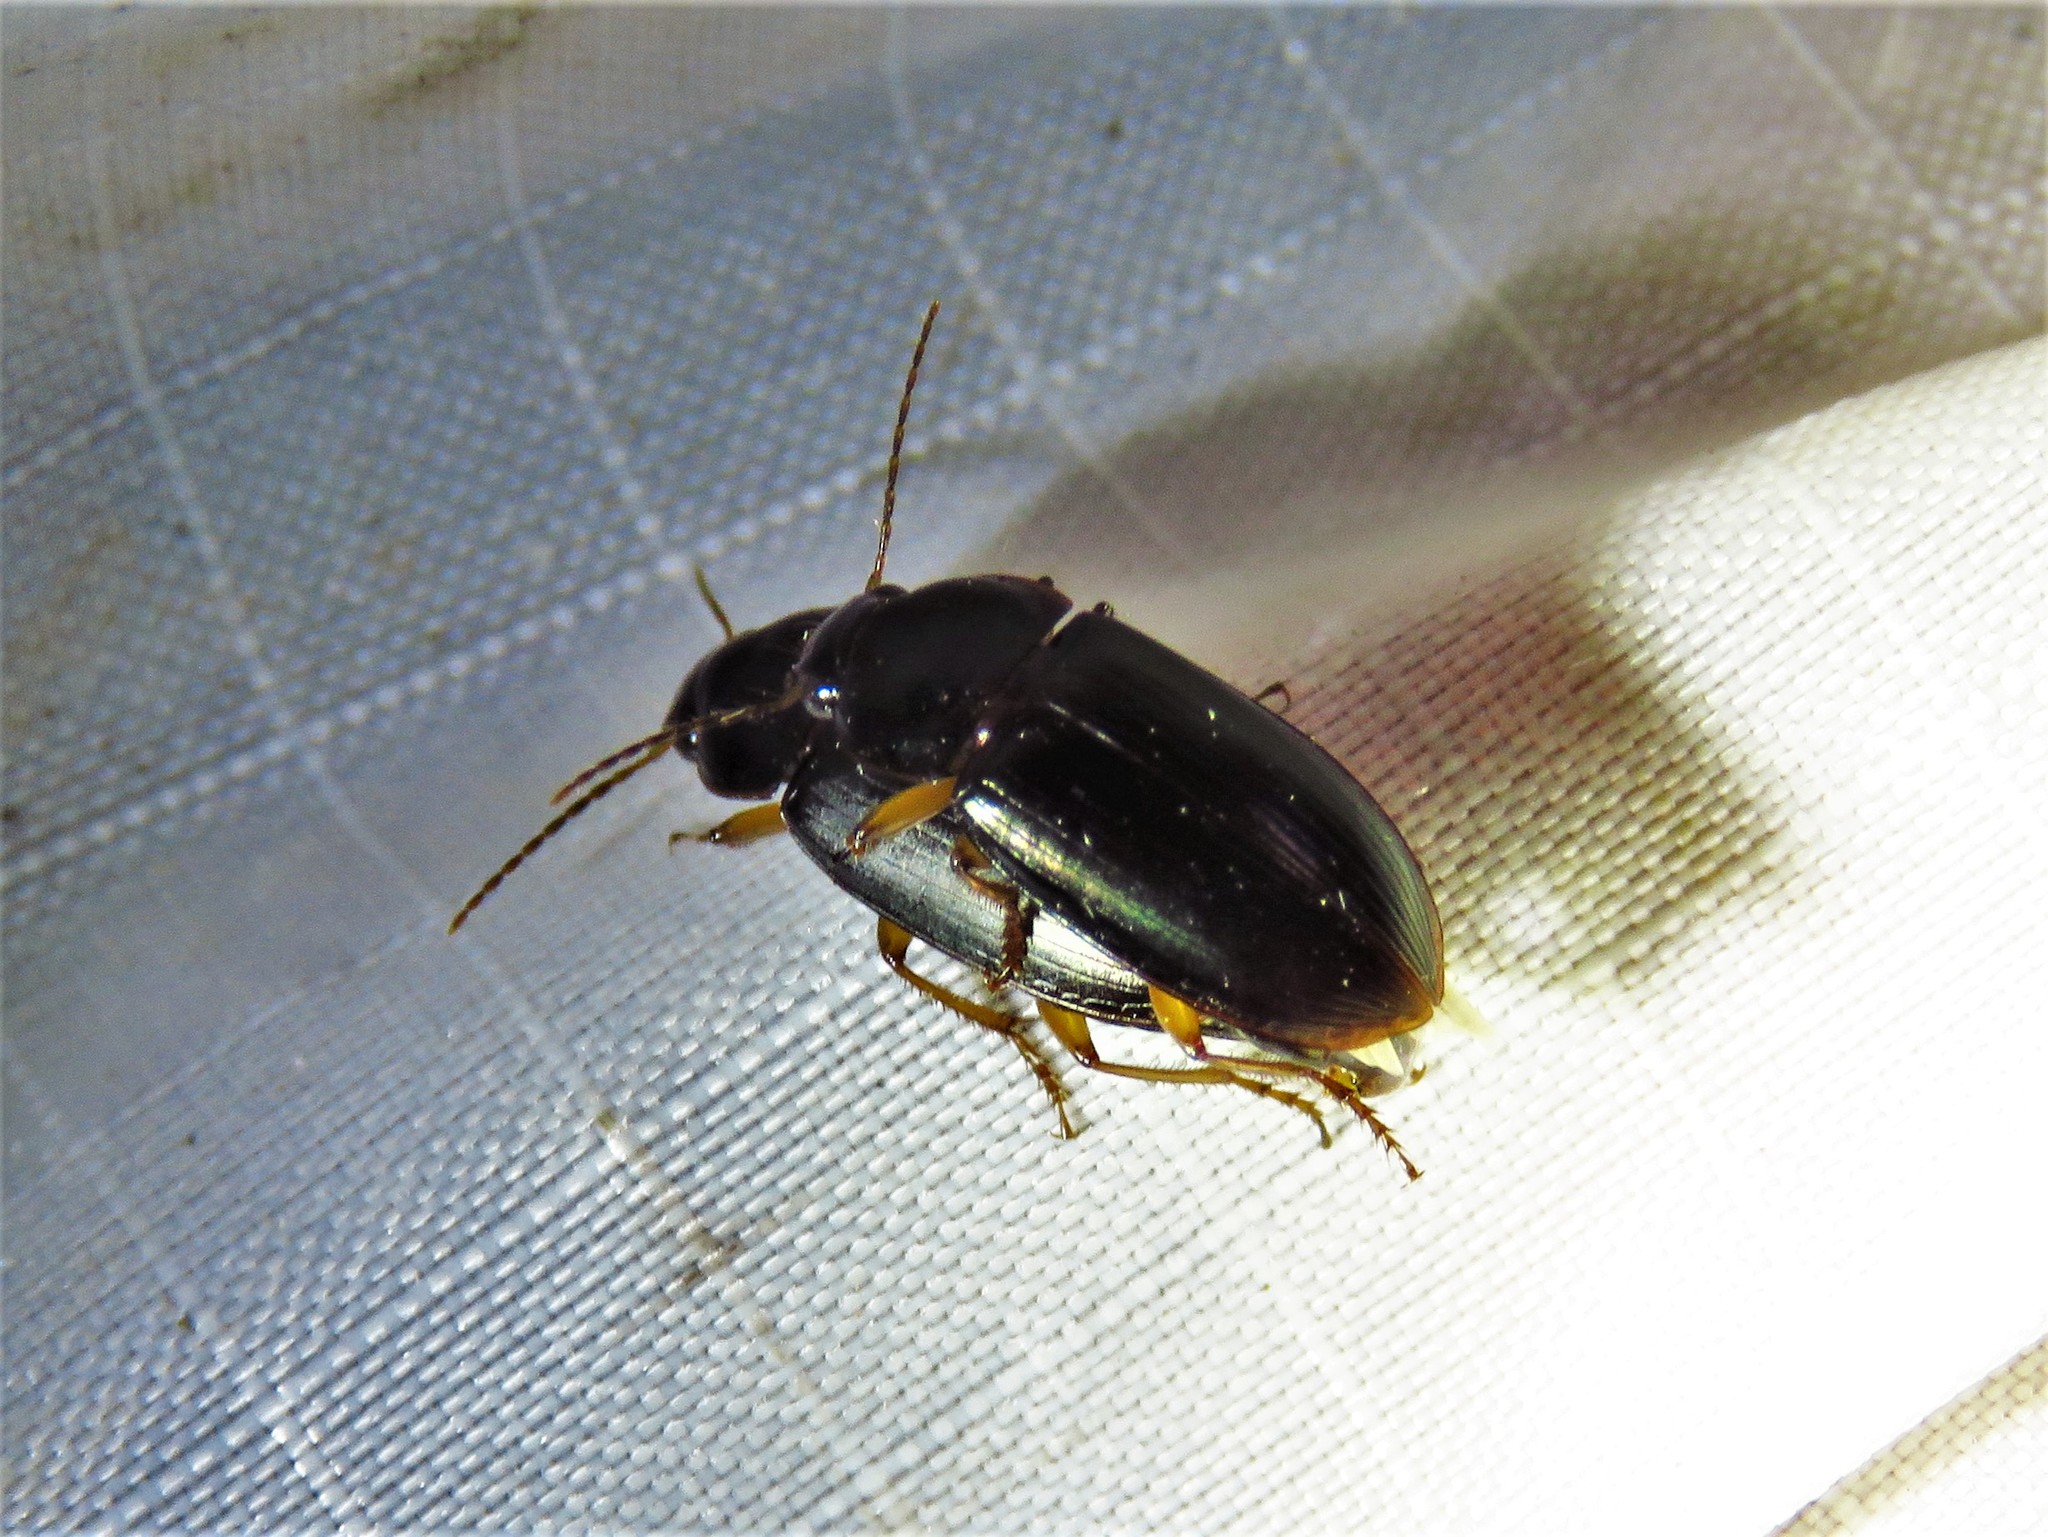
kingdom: Animalia
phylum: Arthropoda
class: Insecta
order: Coleoptera
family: Carabidae
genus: Notiobia
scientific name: Notiobia terminata
